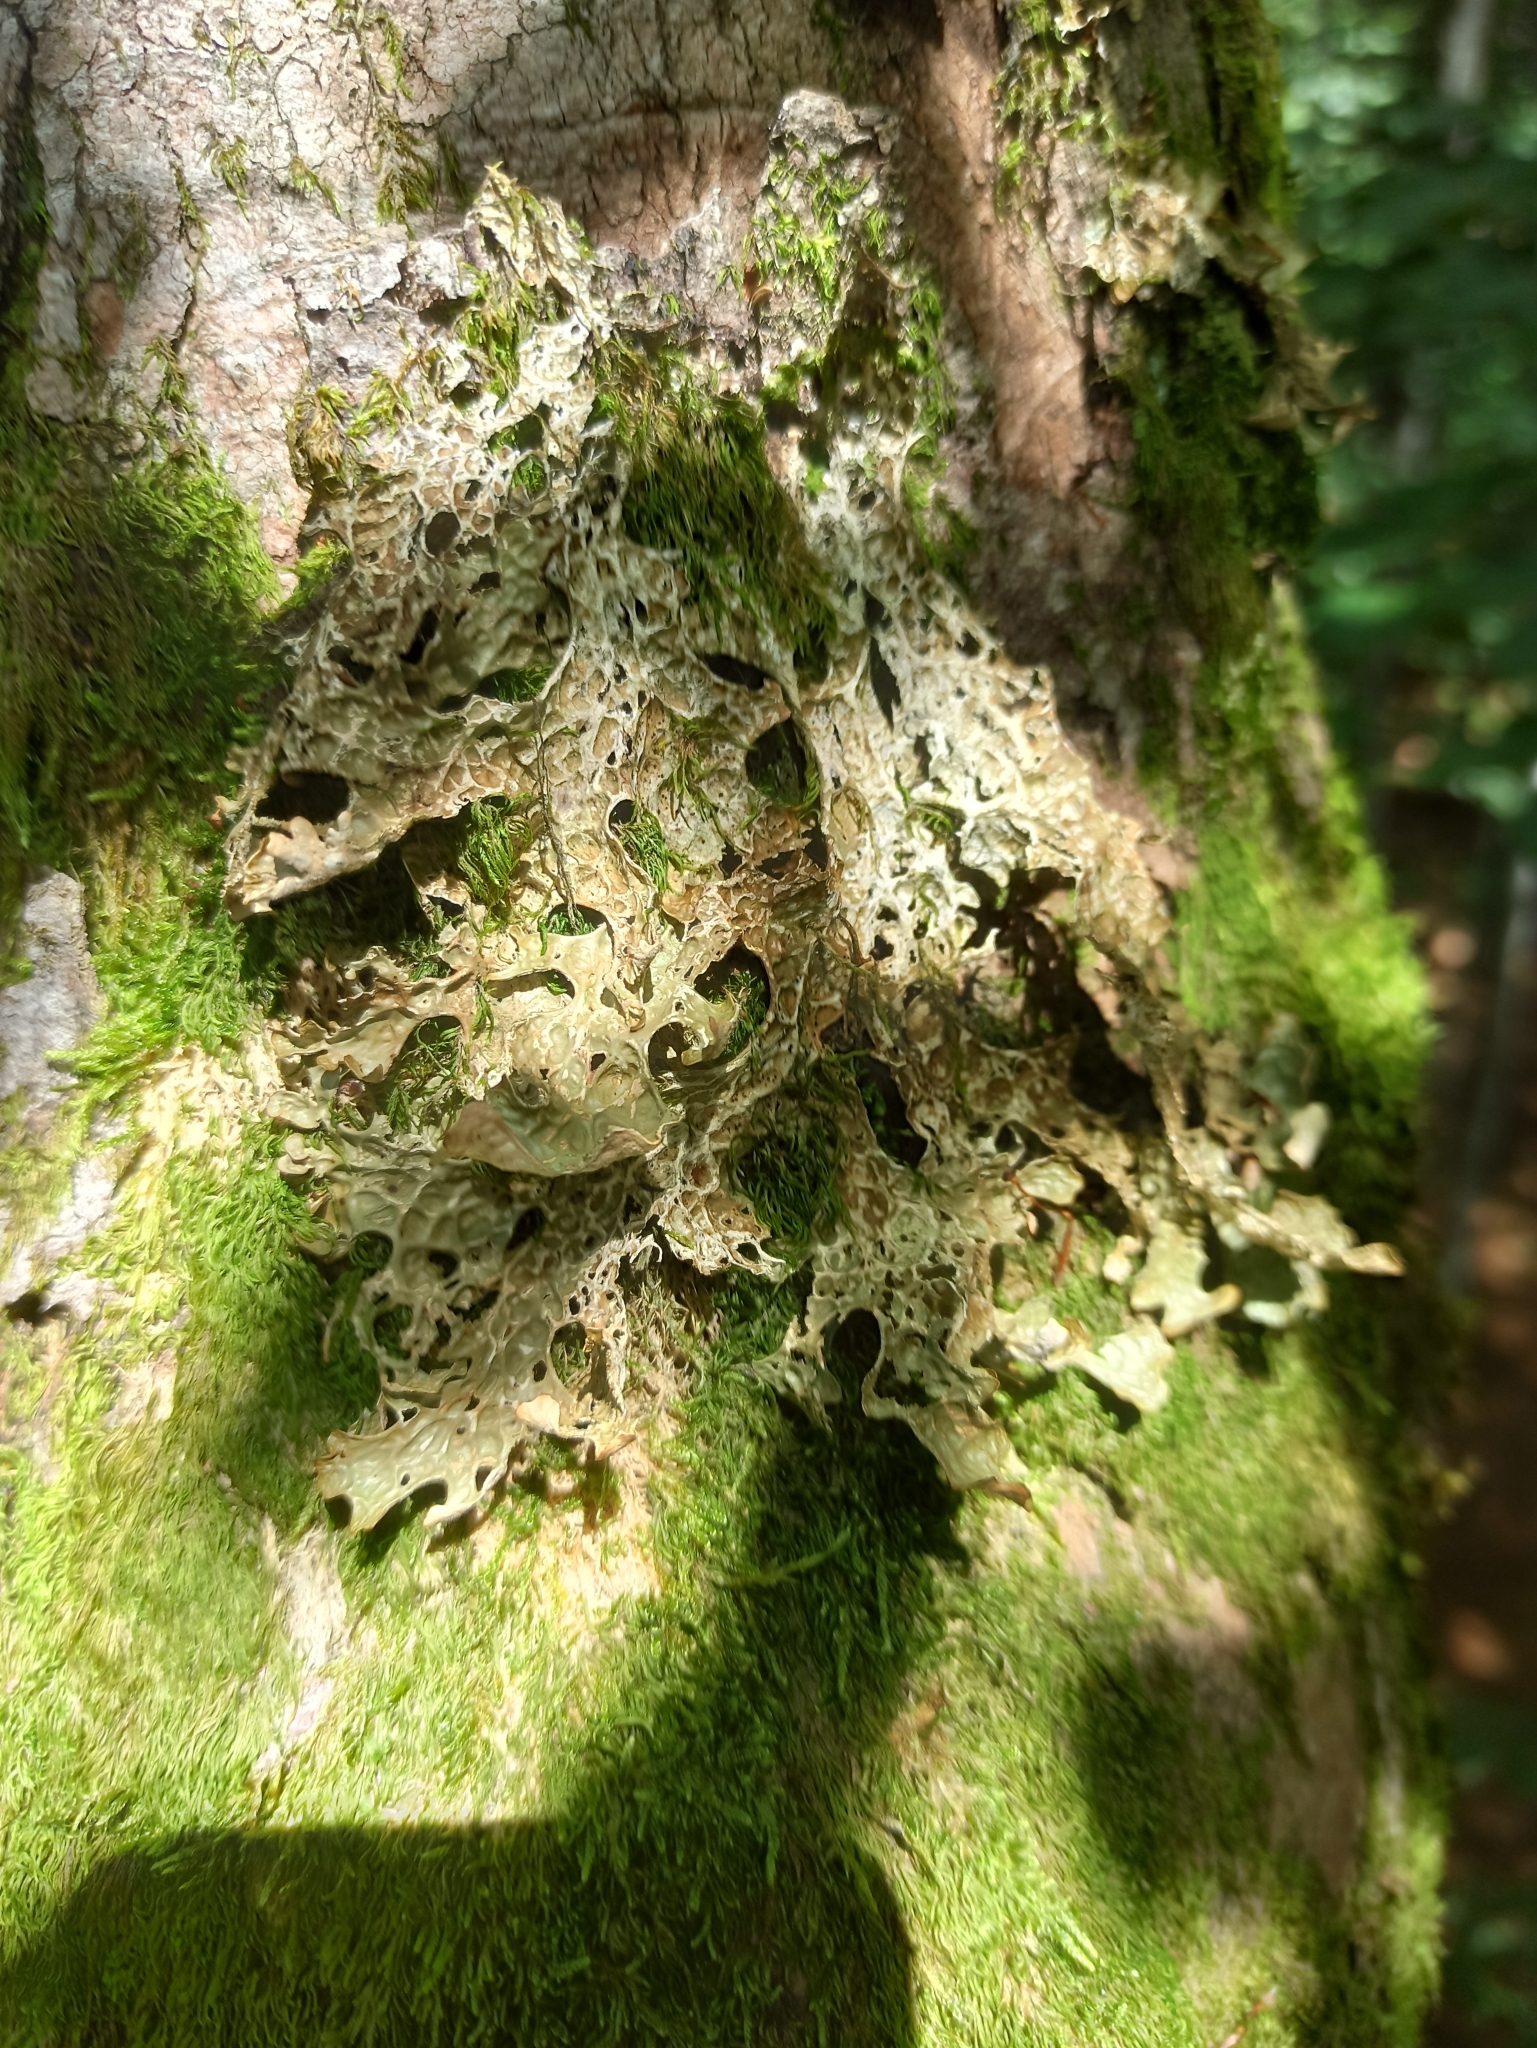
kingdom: Fungi
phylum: Ascomycota
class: Lecanoromycetes
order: Peltigerales
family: Lobariaceae
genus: Lobaria
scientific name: Lobaria pulmonaria
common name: Lungwort
